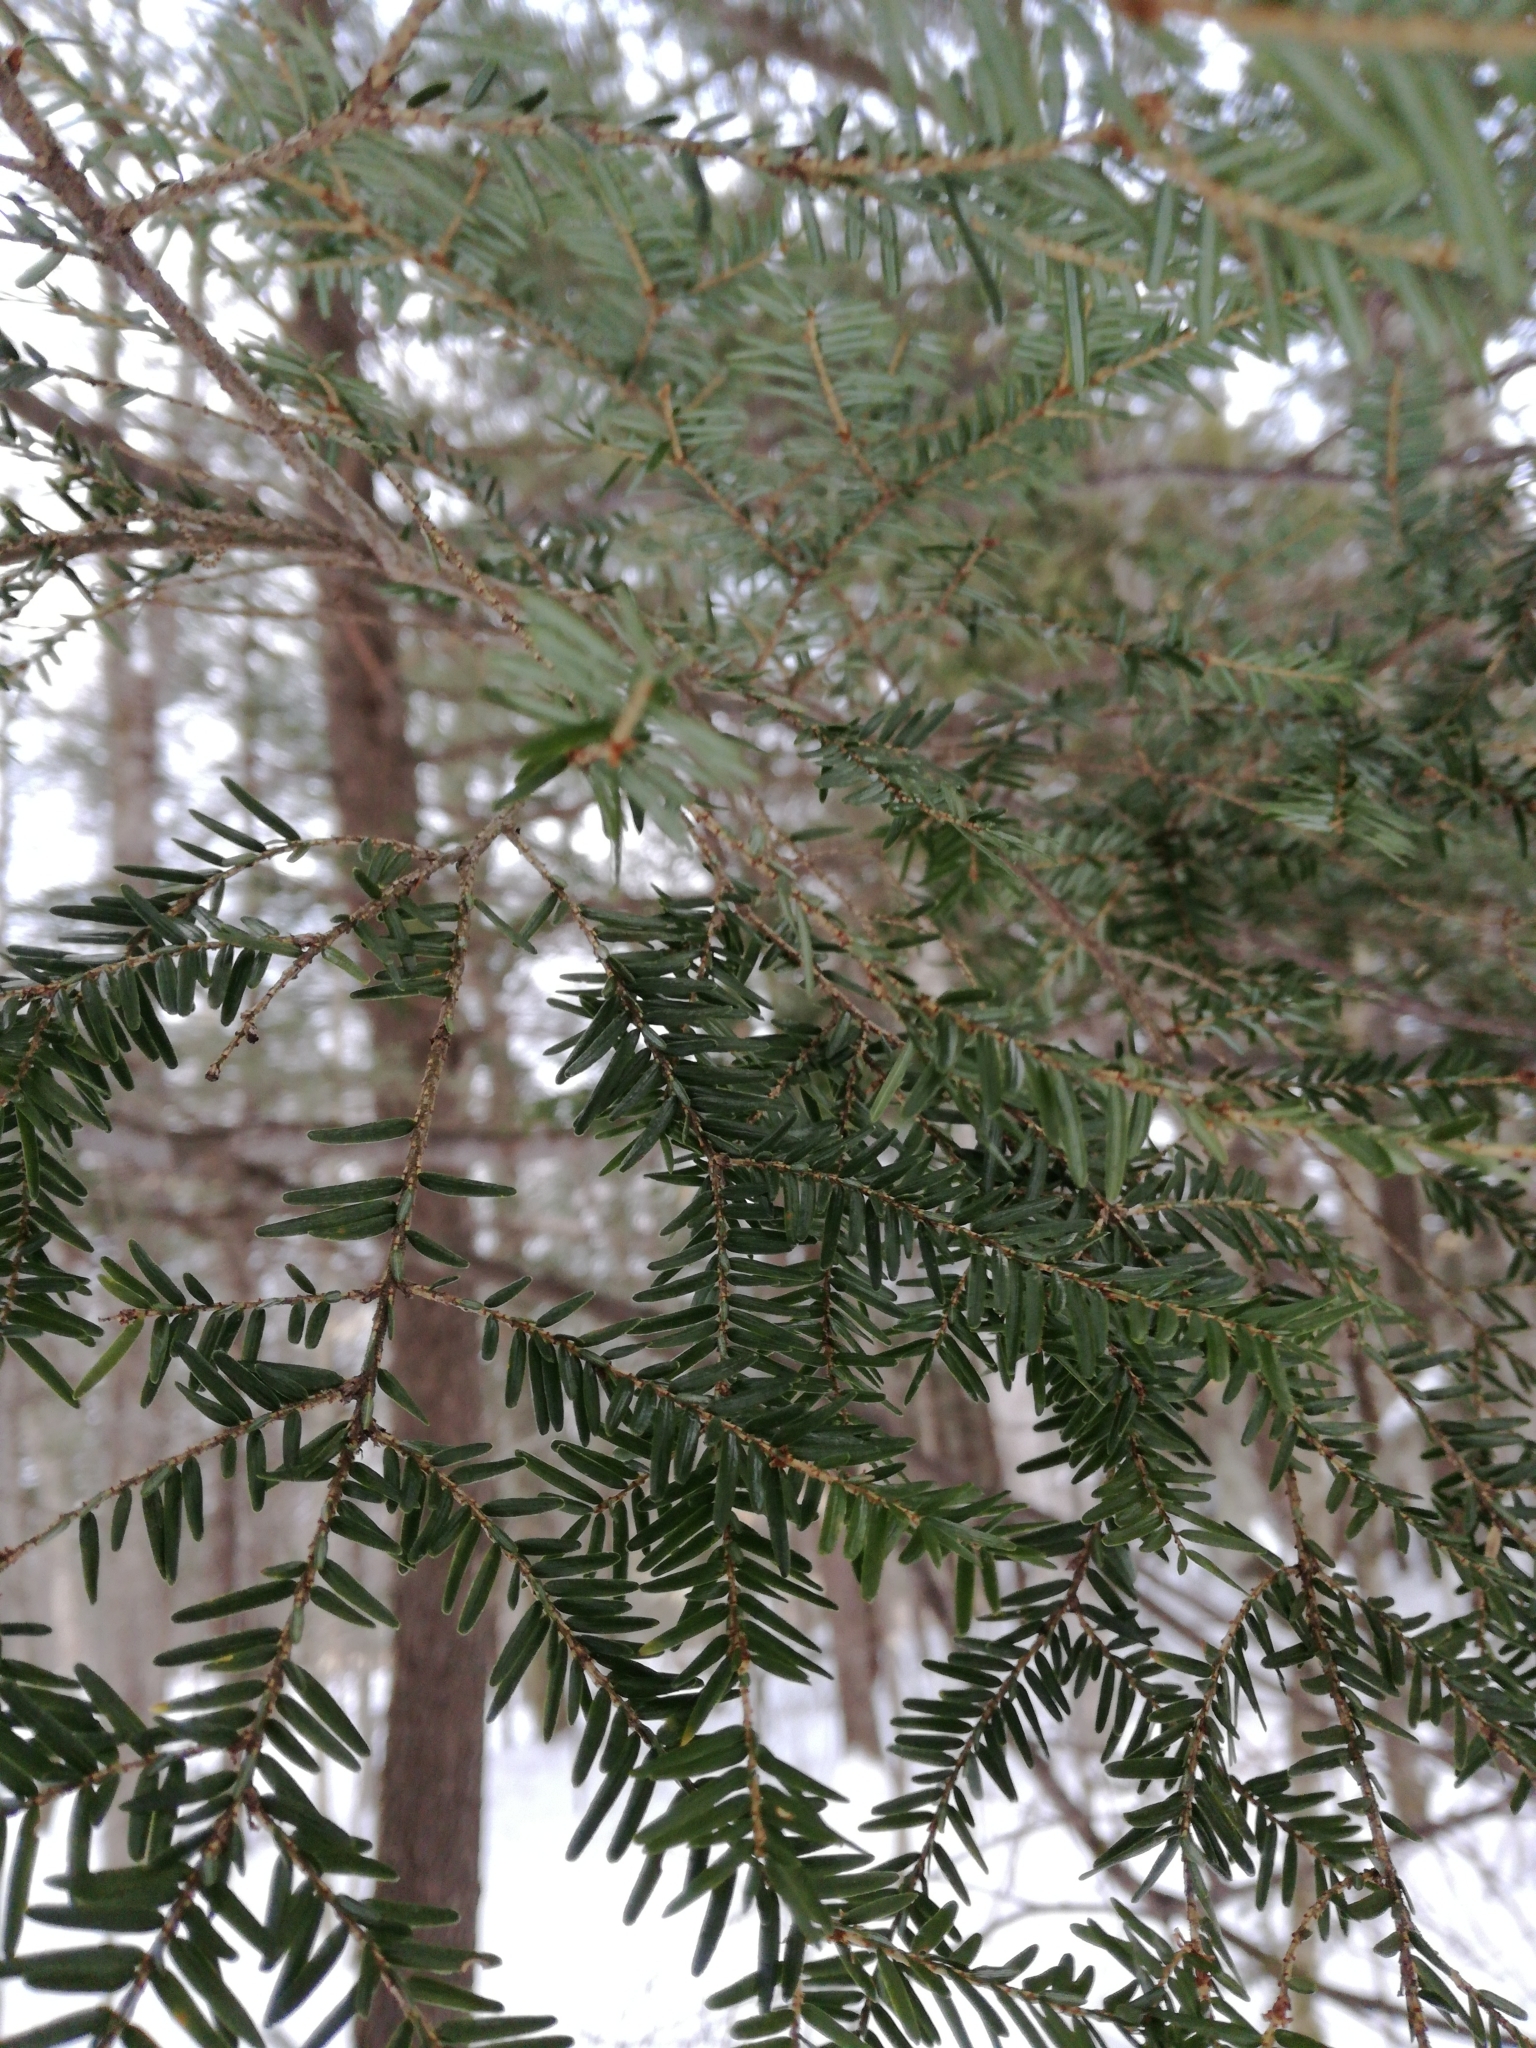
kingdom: Plantae
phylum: Tracheophyta
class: Pinopsida
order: Pinales
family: Pinaceae
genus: Tsuga
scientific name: Tsuga canadensis
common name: Eastern hemlock
